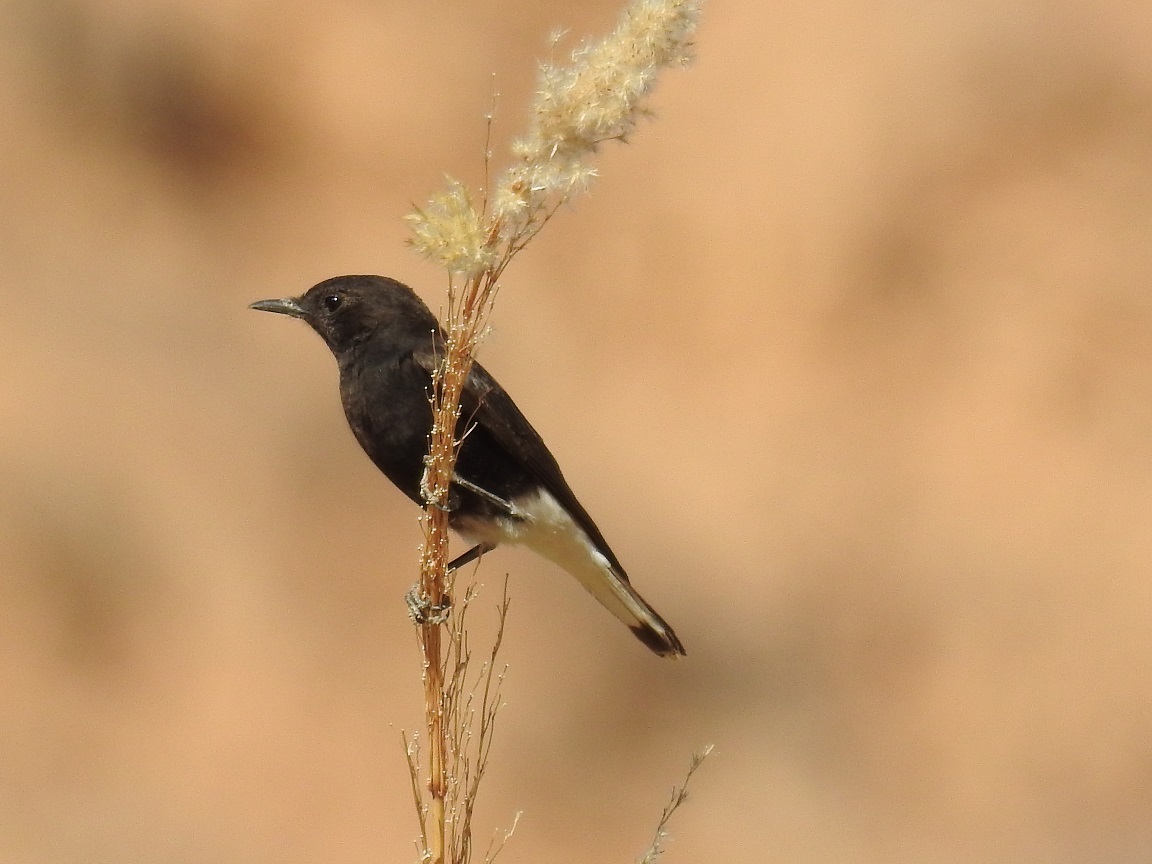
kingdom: Animalia
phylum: Chordata
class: Aves
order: Passeriformes
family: Muscicapidae
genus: Oenanthe
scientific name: Oenanthe leucopyga
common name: White-crowned wheatear
